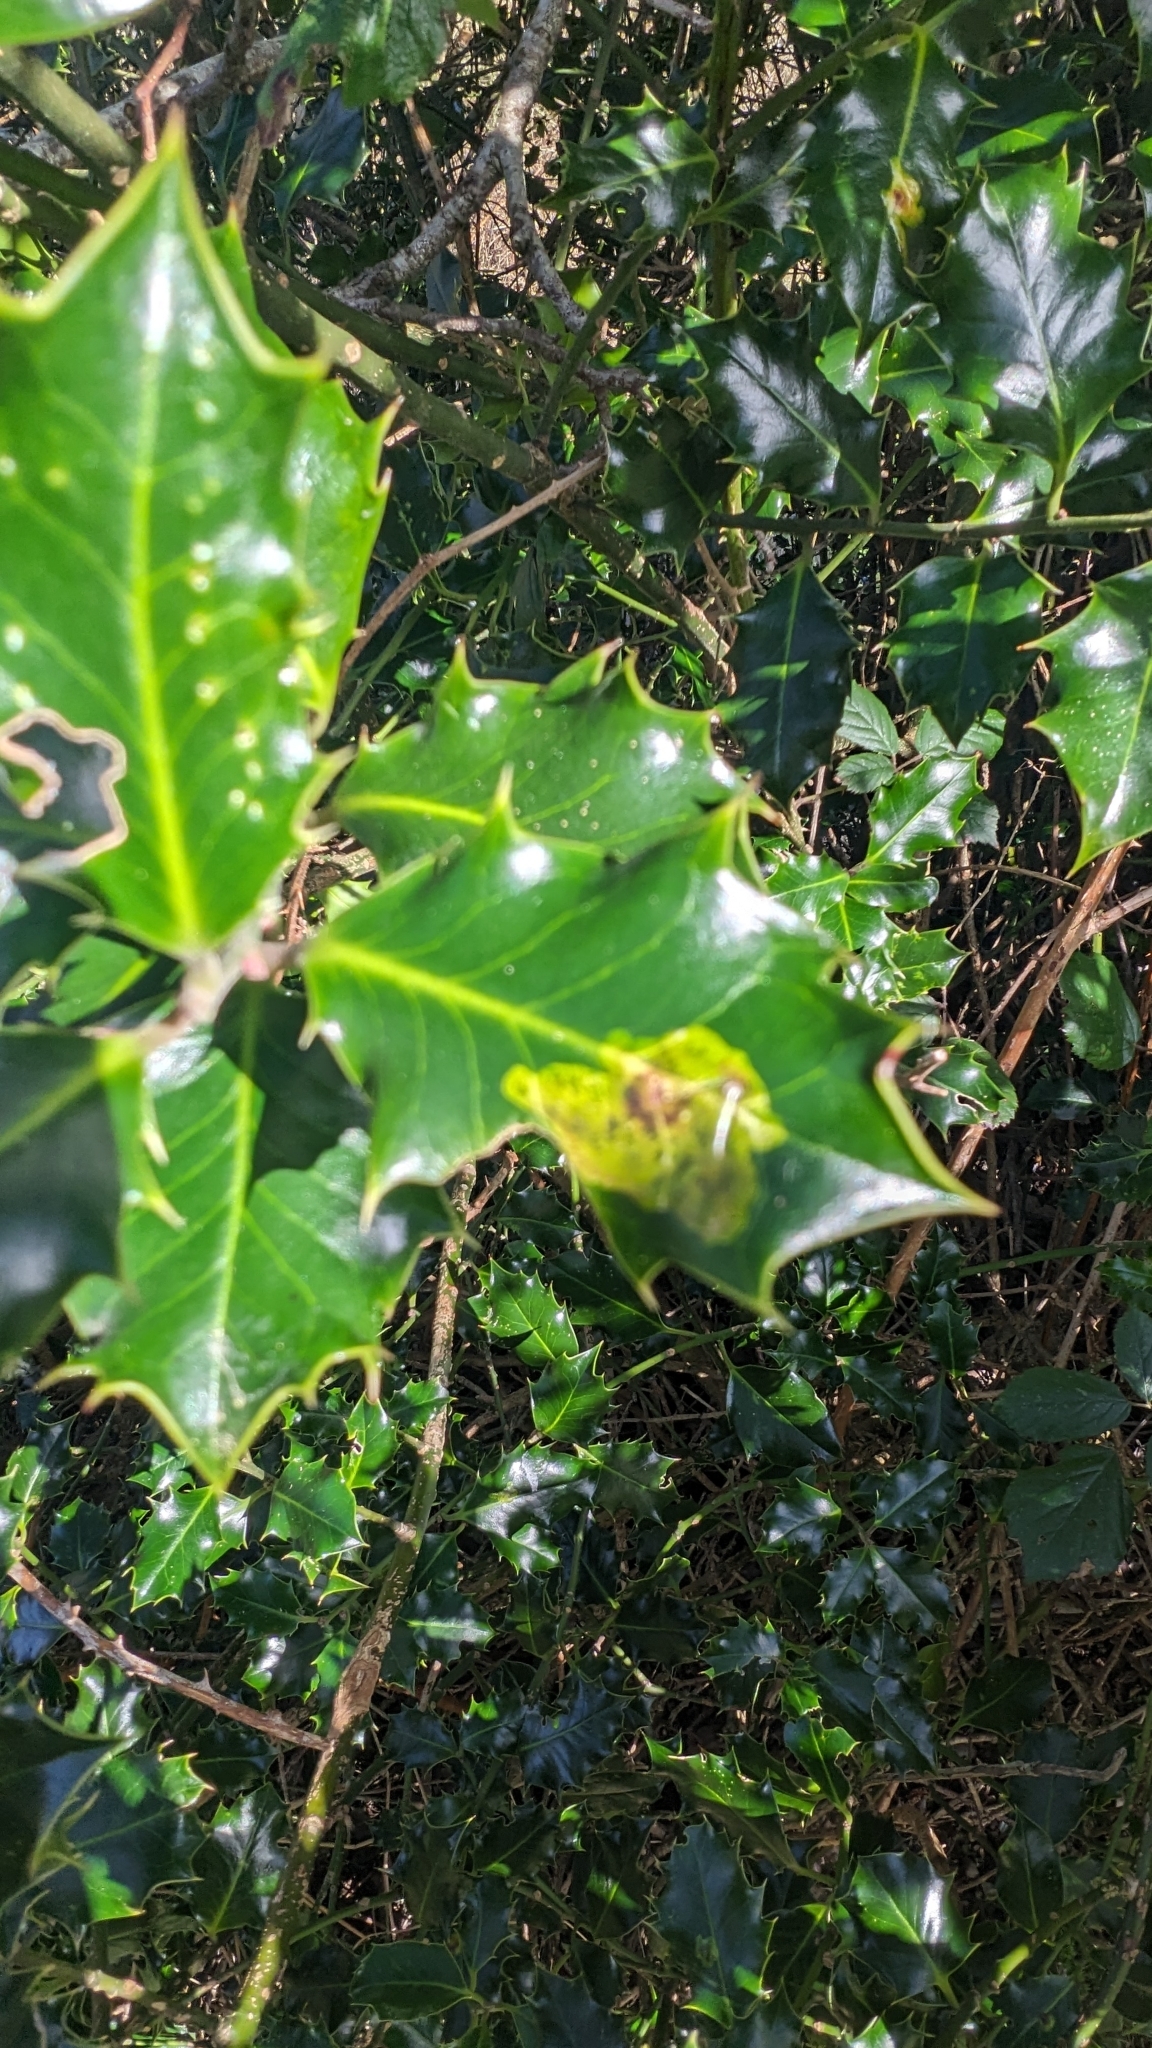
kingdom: Animalia
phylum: Arthropoda
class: Insecta
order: Diptera
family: Agromyzidae
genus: Phytomyza
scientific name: Phytomyza ilicis
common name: Holly leafminer
